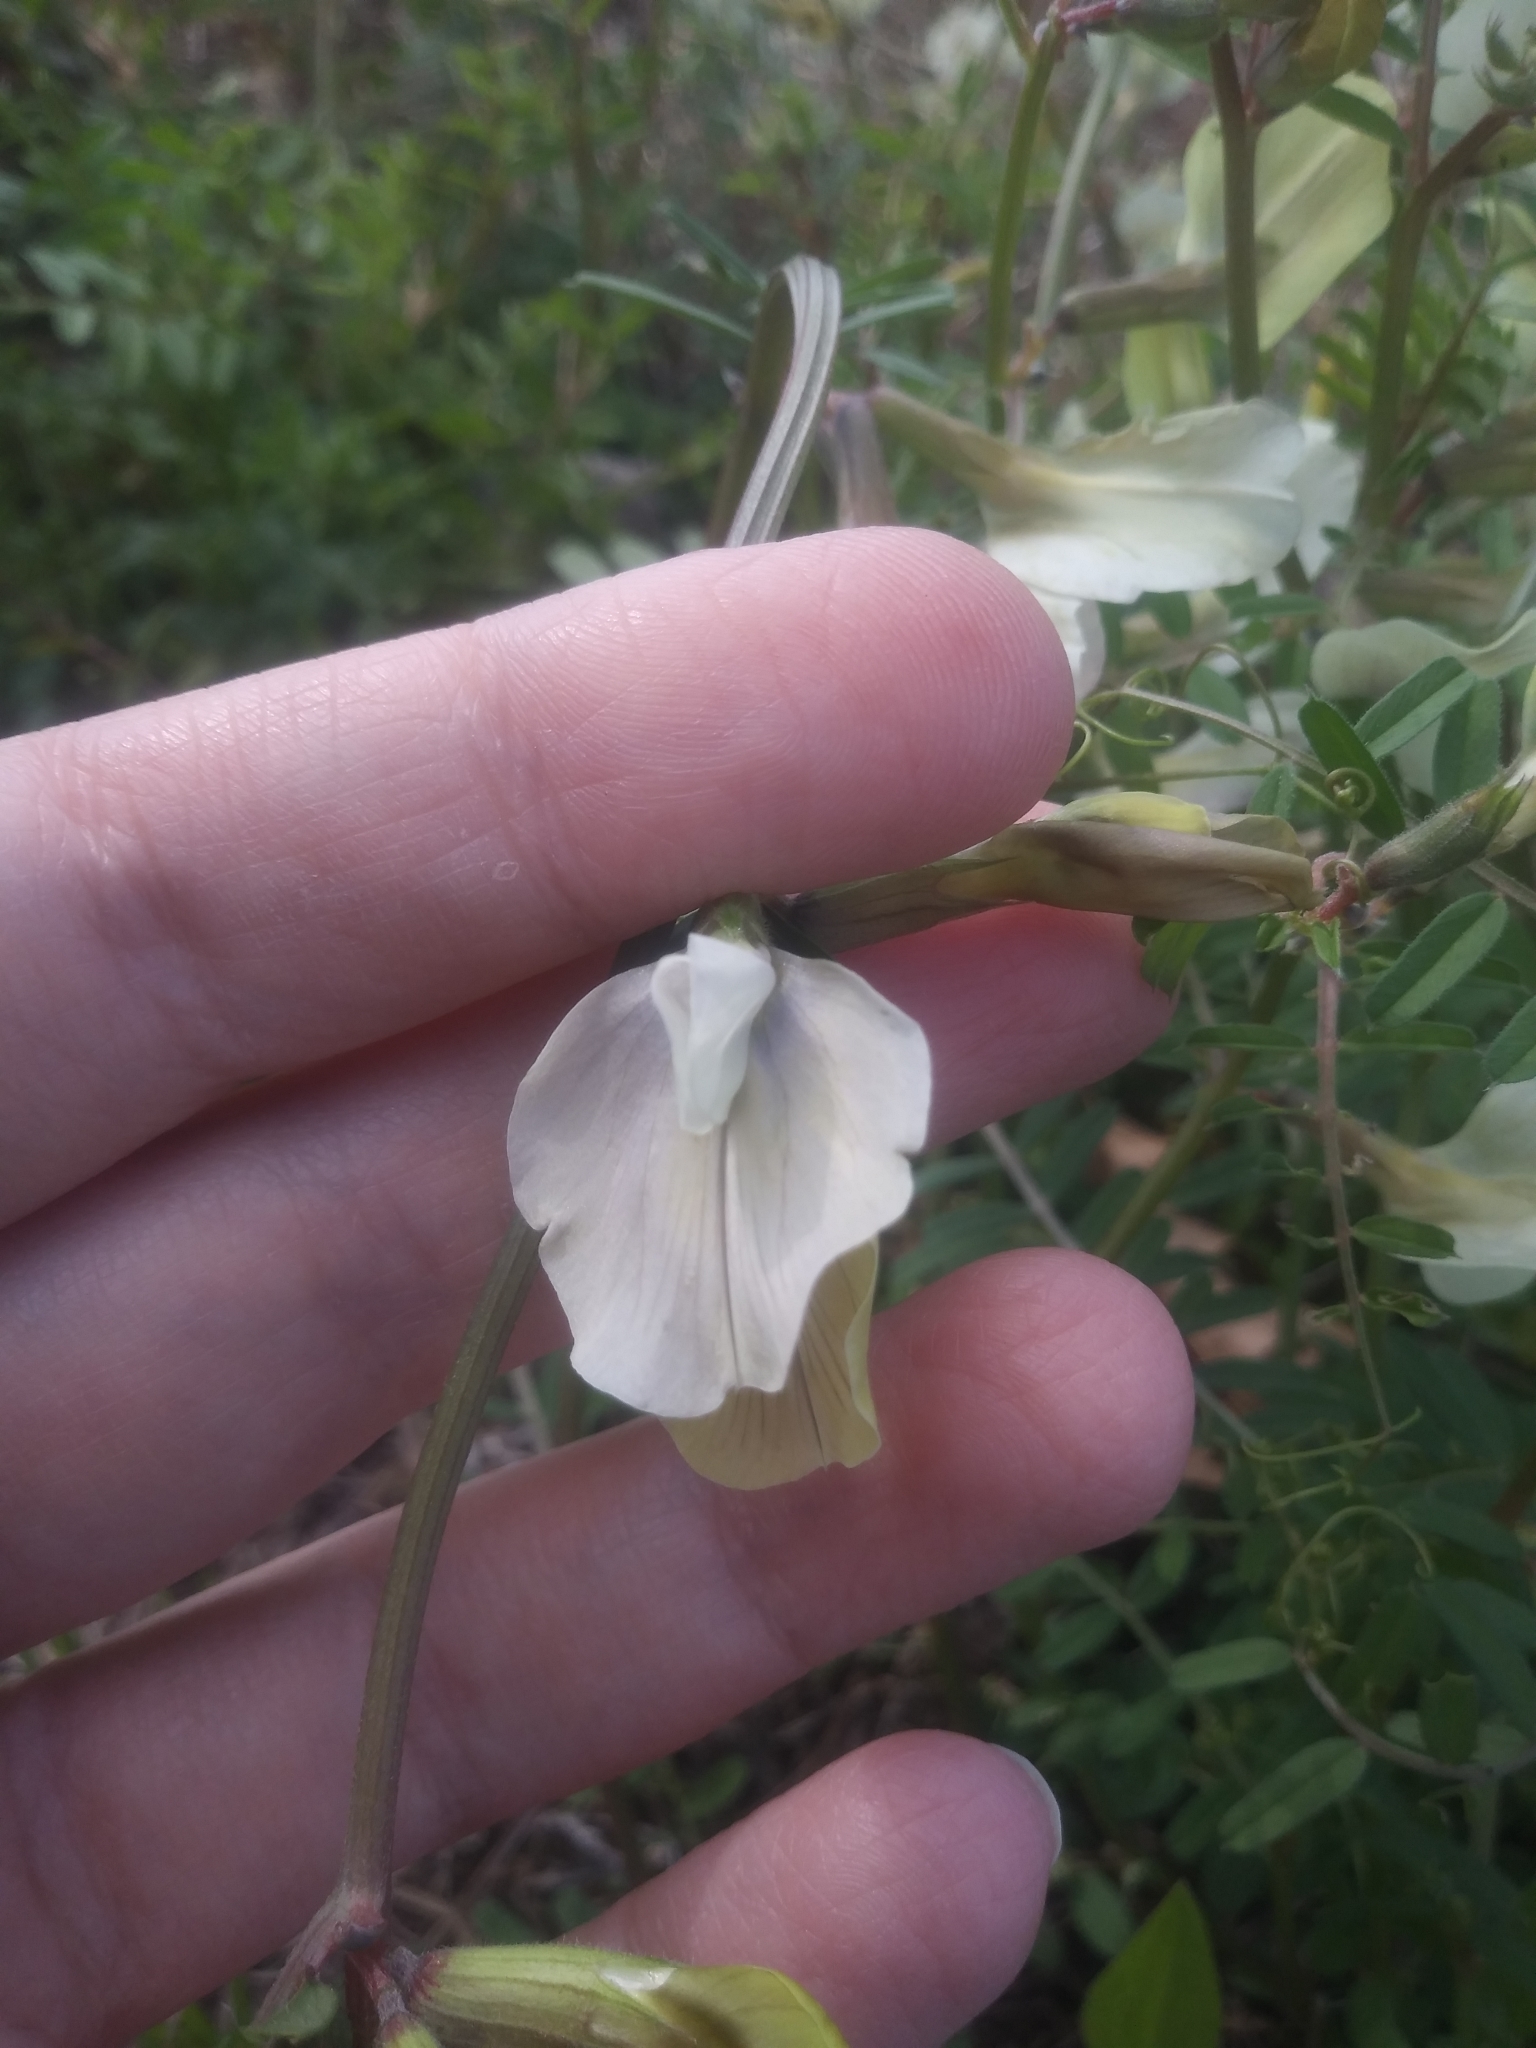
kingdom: Plantae
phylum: Tracheophyta
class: Magnoliopsida
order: Fabales
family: Fabaceae
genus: Vicia
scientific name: Vicia grandiflora
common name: Large yellow vetch
